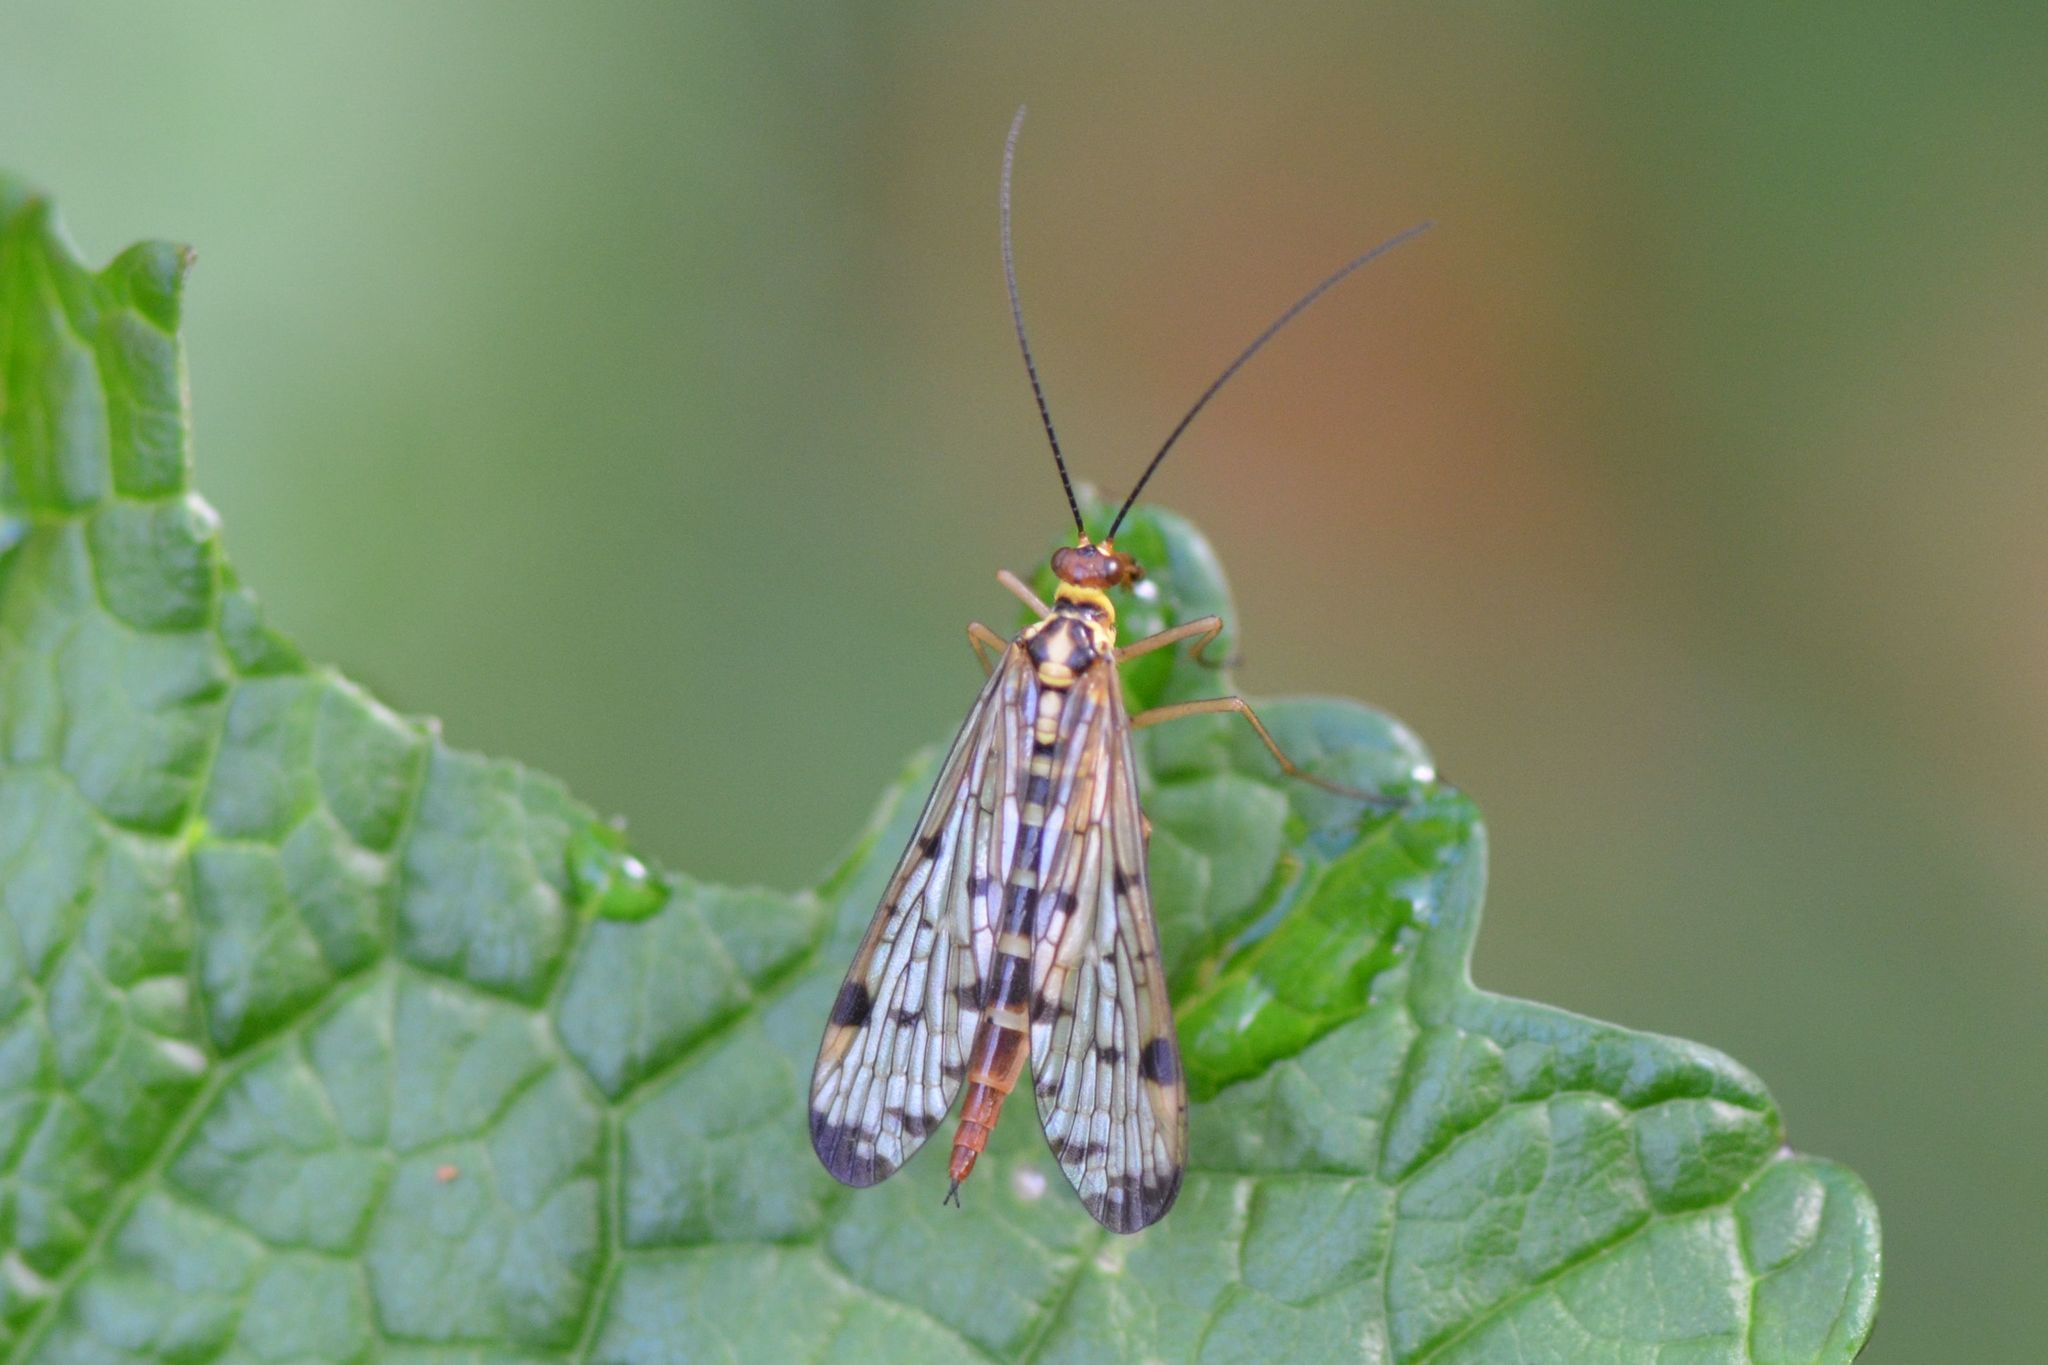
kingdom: Animalia
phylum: Arthropoda
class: Insecta
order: Mecoptera
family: Panorpidae
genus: Panorpa
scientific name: Panorpa germanica
